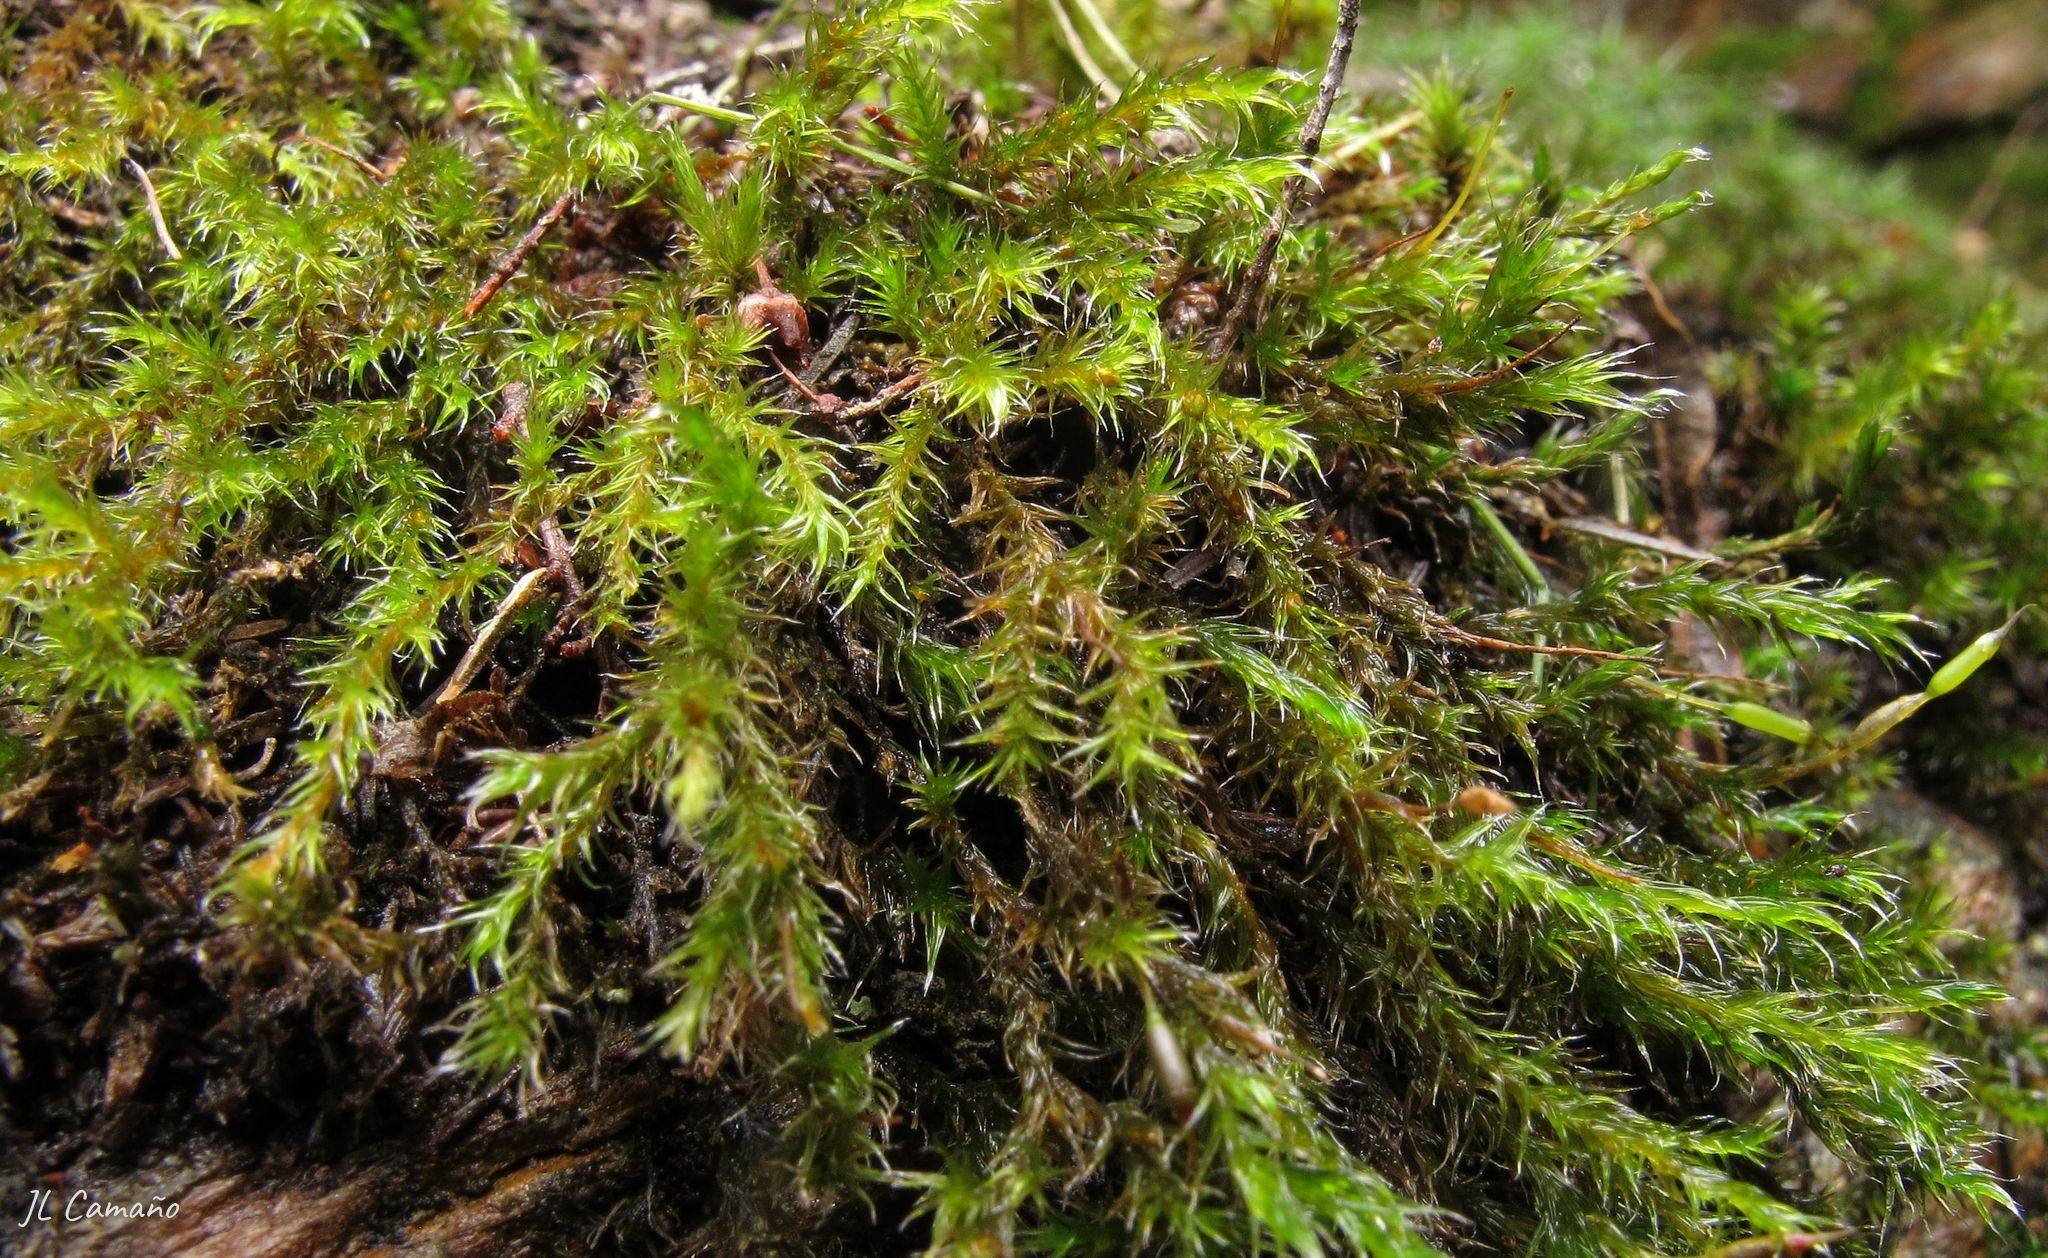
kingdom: Plantae
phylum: Bryophyta
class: Bryopsida
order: Grimmiales
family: Grimmiaceae
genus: Bucklandiella
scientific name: Bucklandiella heterosticha
